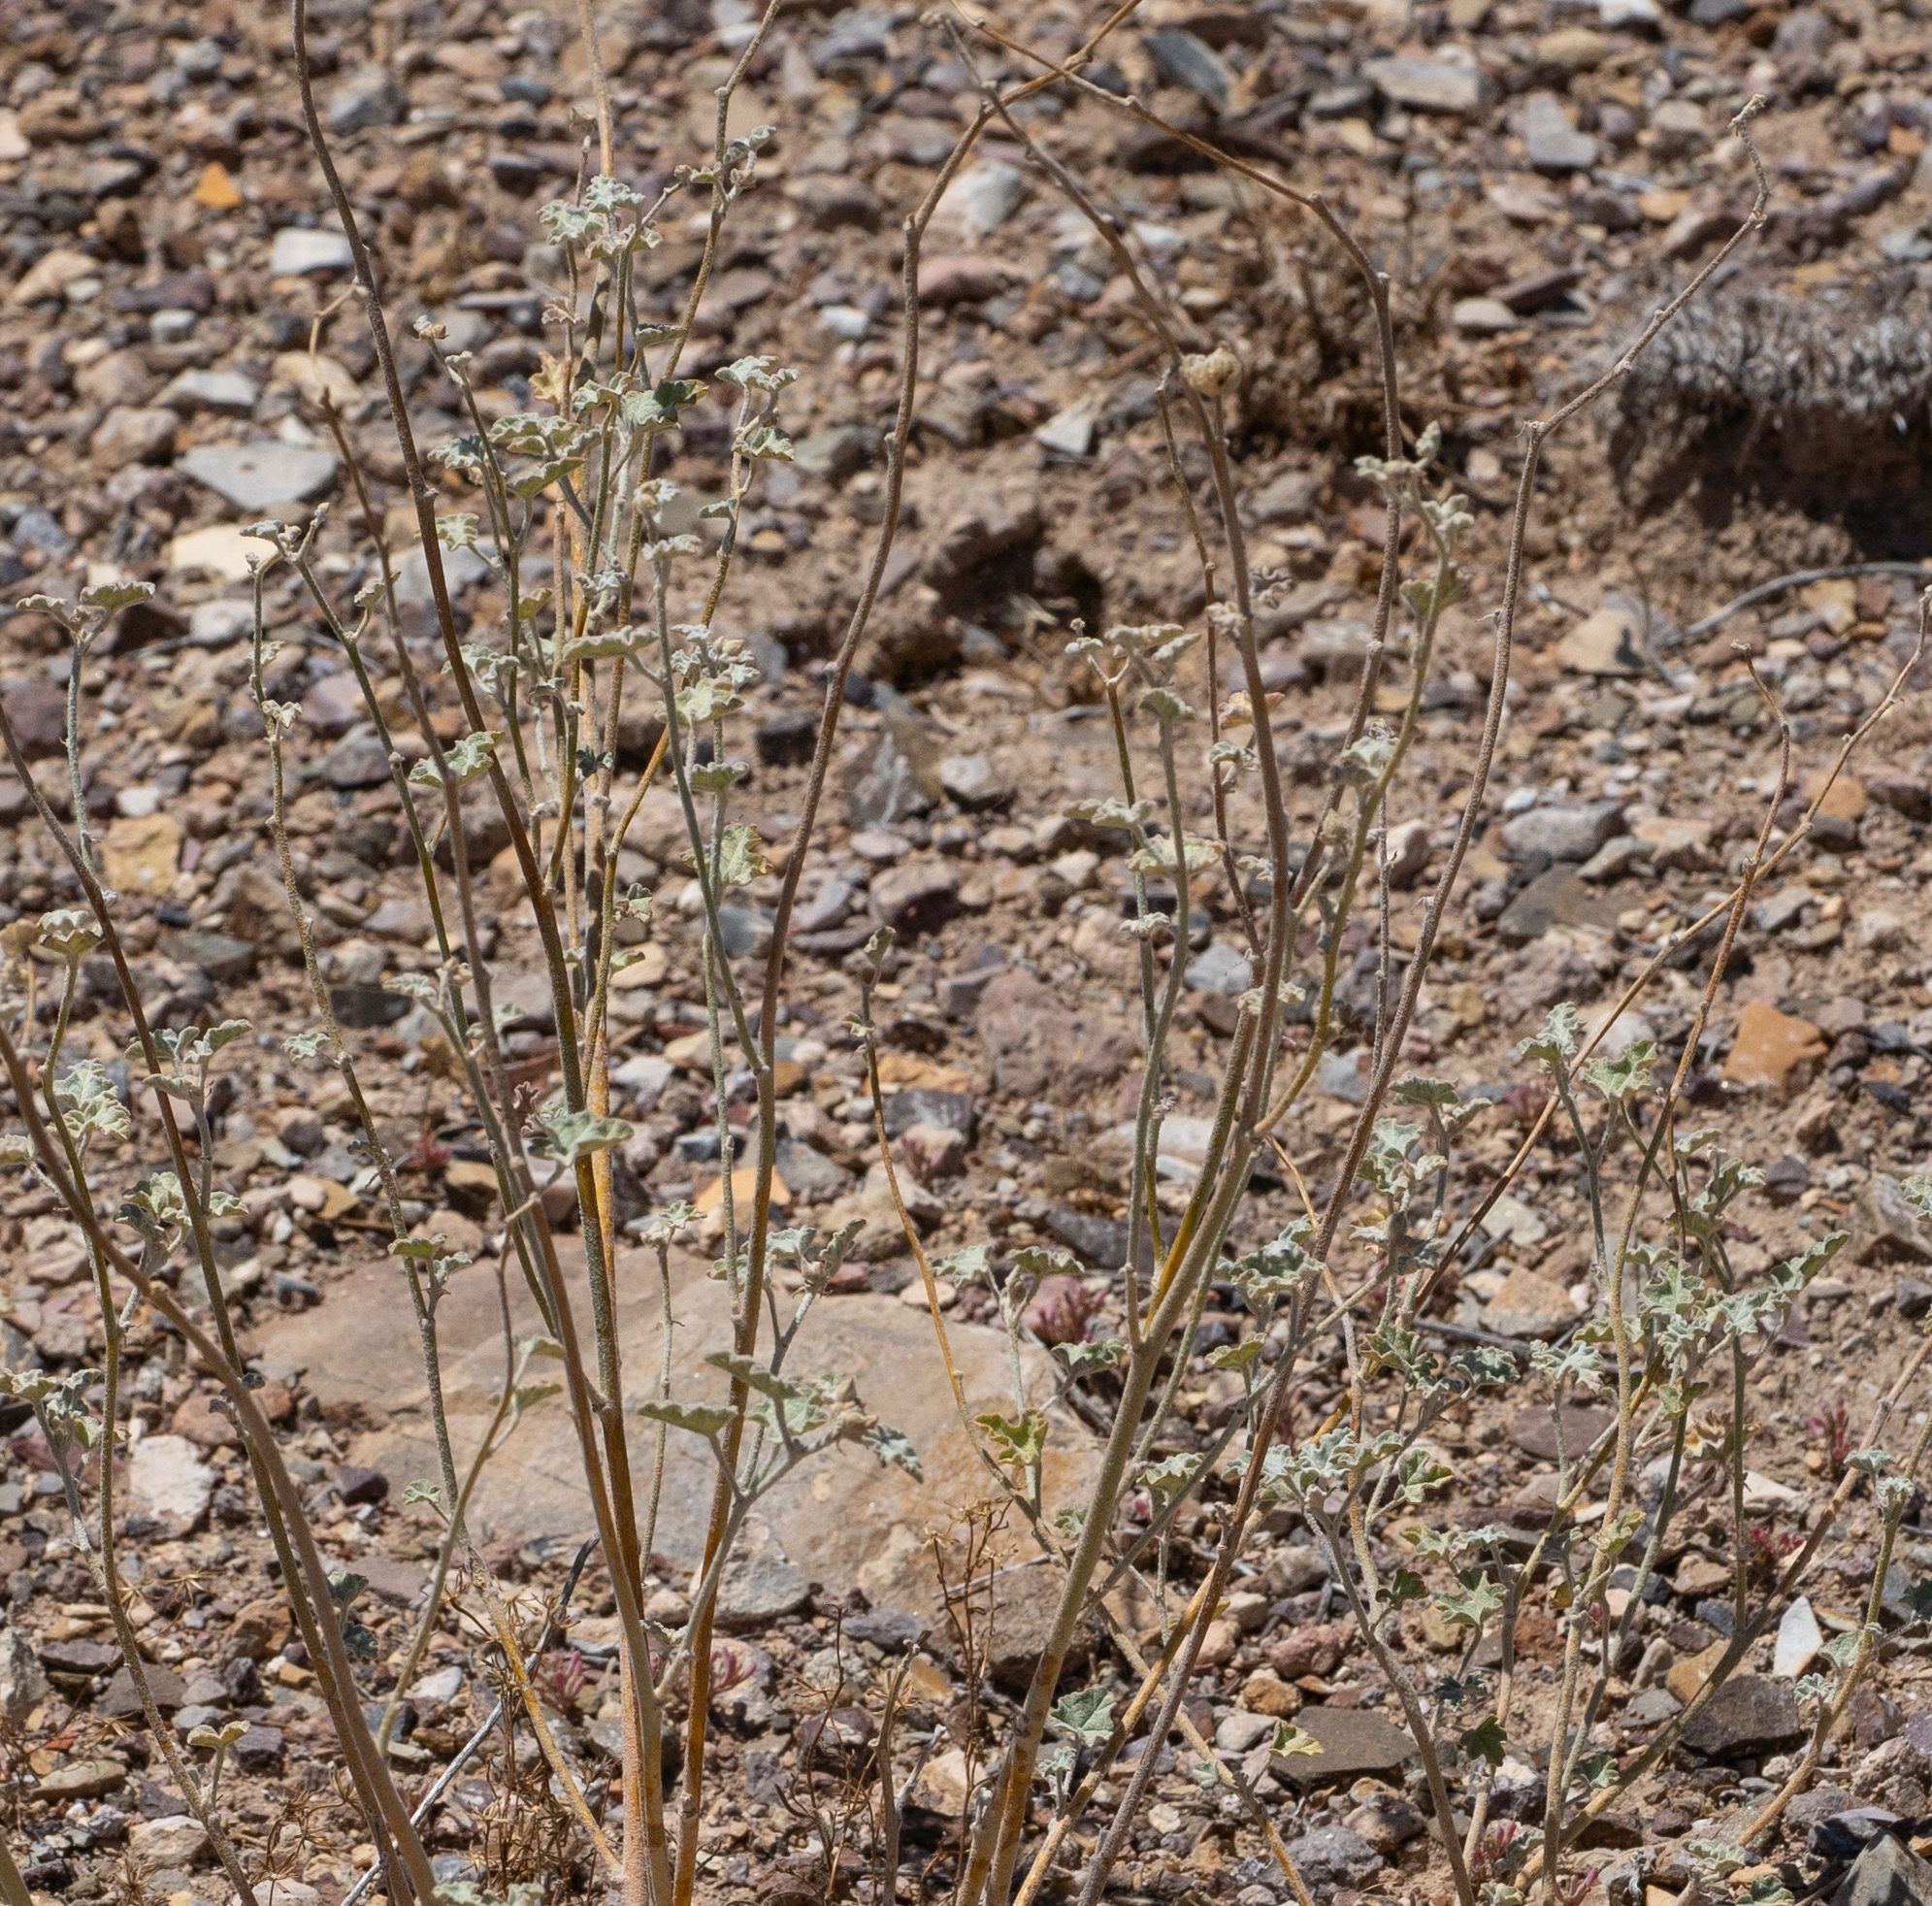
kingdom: Plantae
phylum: Tracheophyta
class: Magnoliopsida
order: Malvales
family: Malvaceae
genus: Sphaeralcea
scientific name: Sphaeralcea ambigua
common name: Apricot globe-mallow
